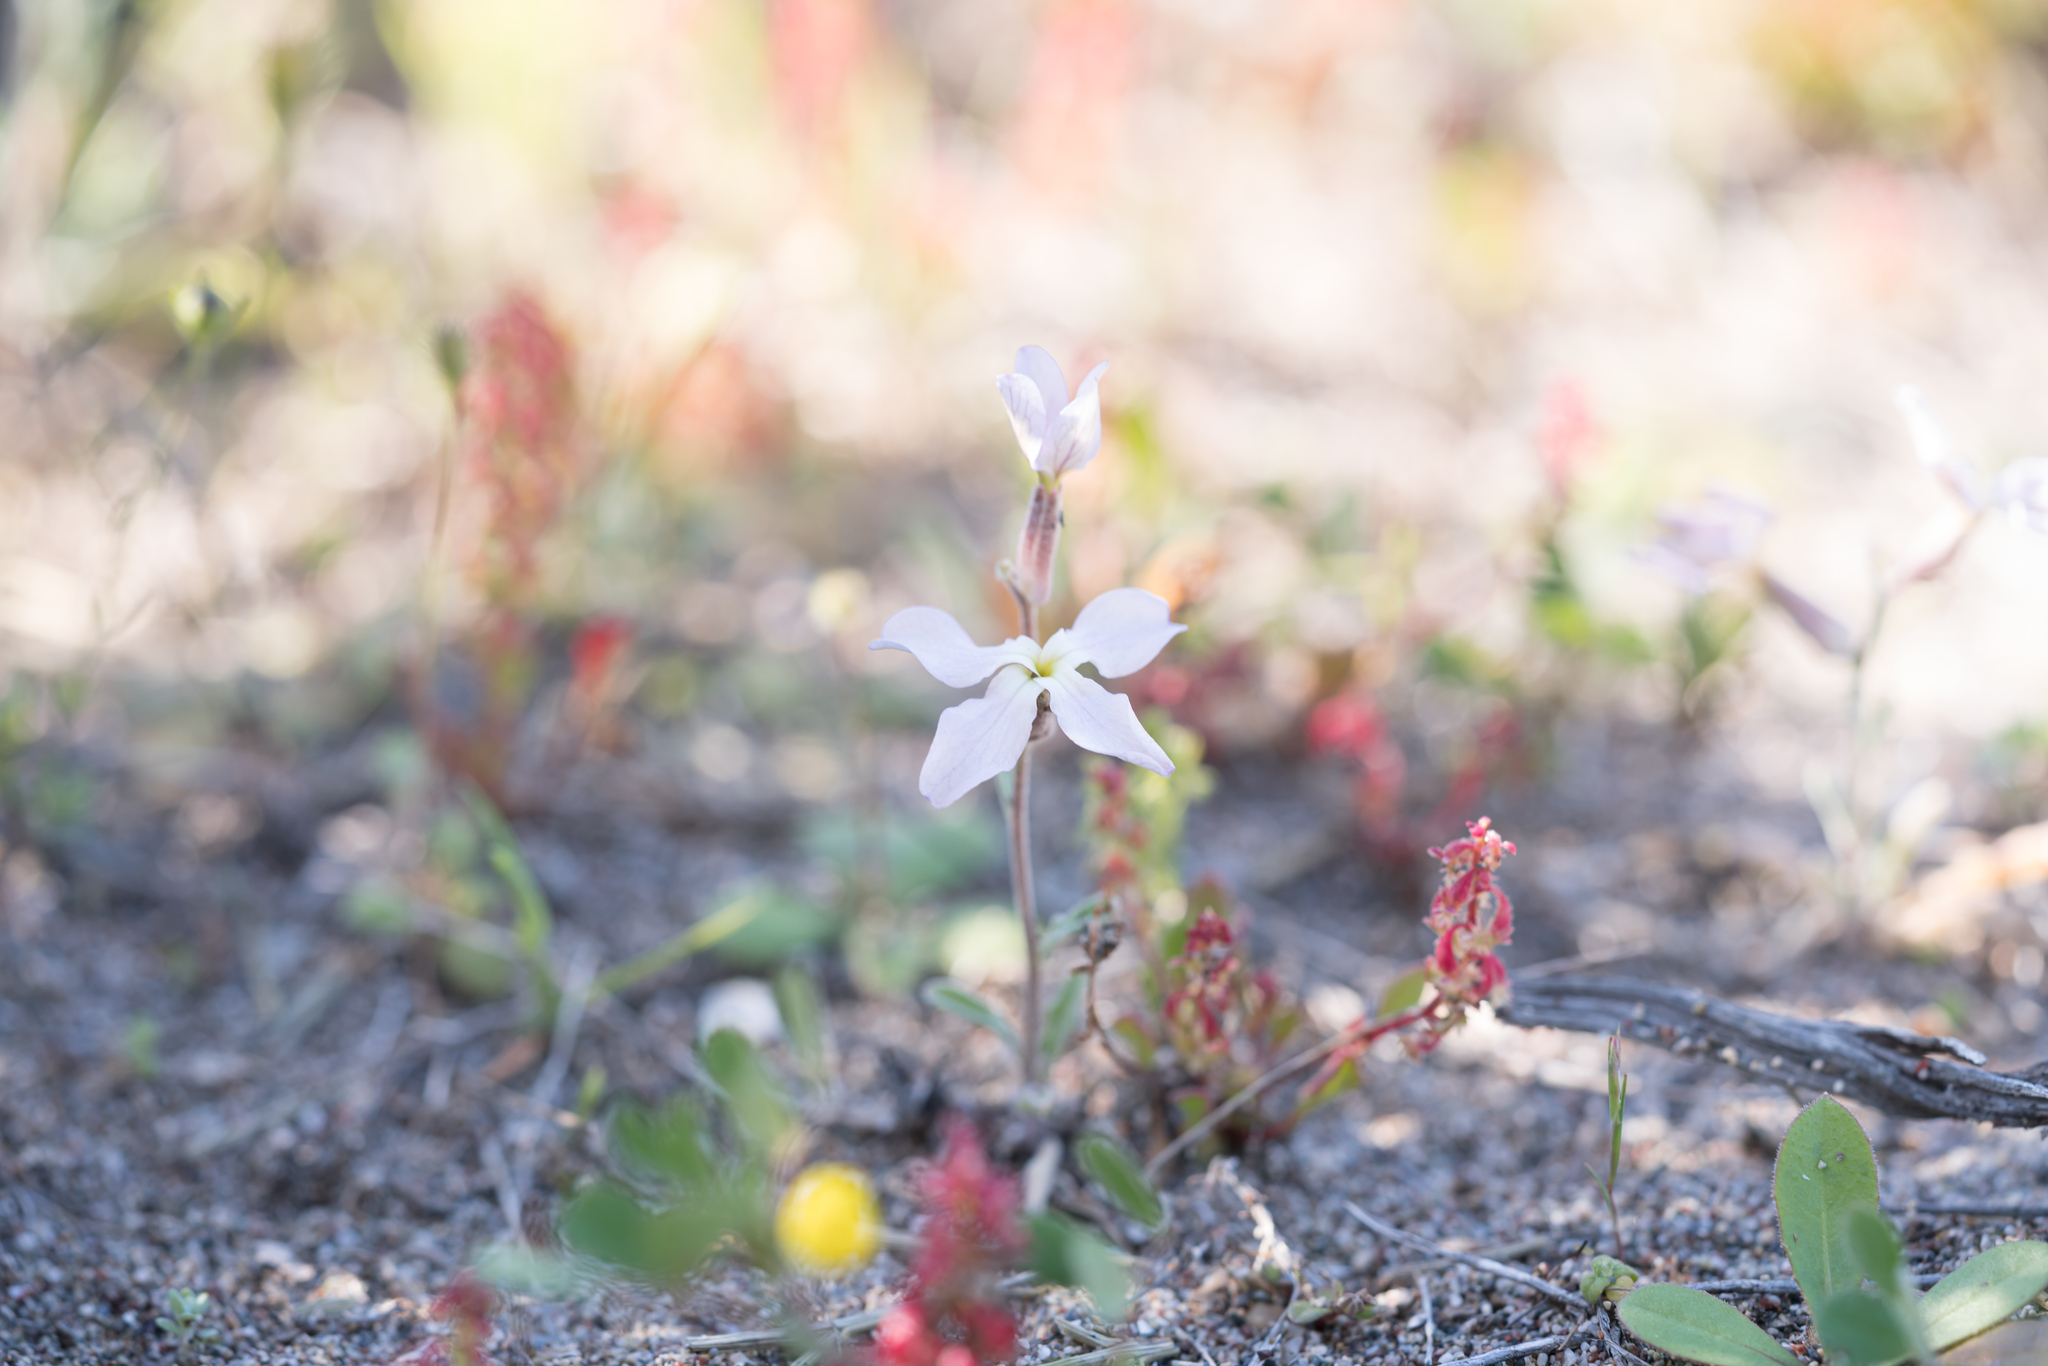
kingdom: Plantae
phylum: Tracheophyta
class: Magnoliopsida
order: Brassicales
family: Brassicaceae
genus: Matthiola
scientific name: Matthiola longipetala
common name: Night-scented stock
